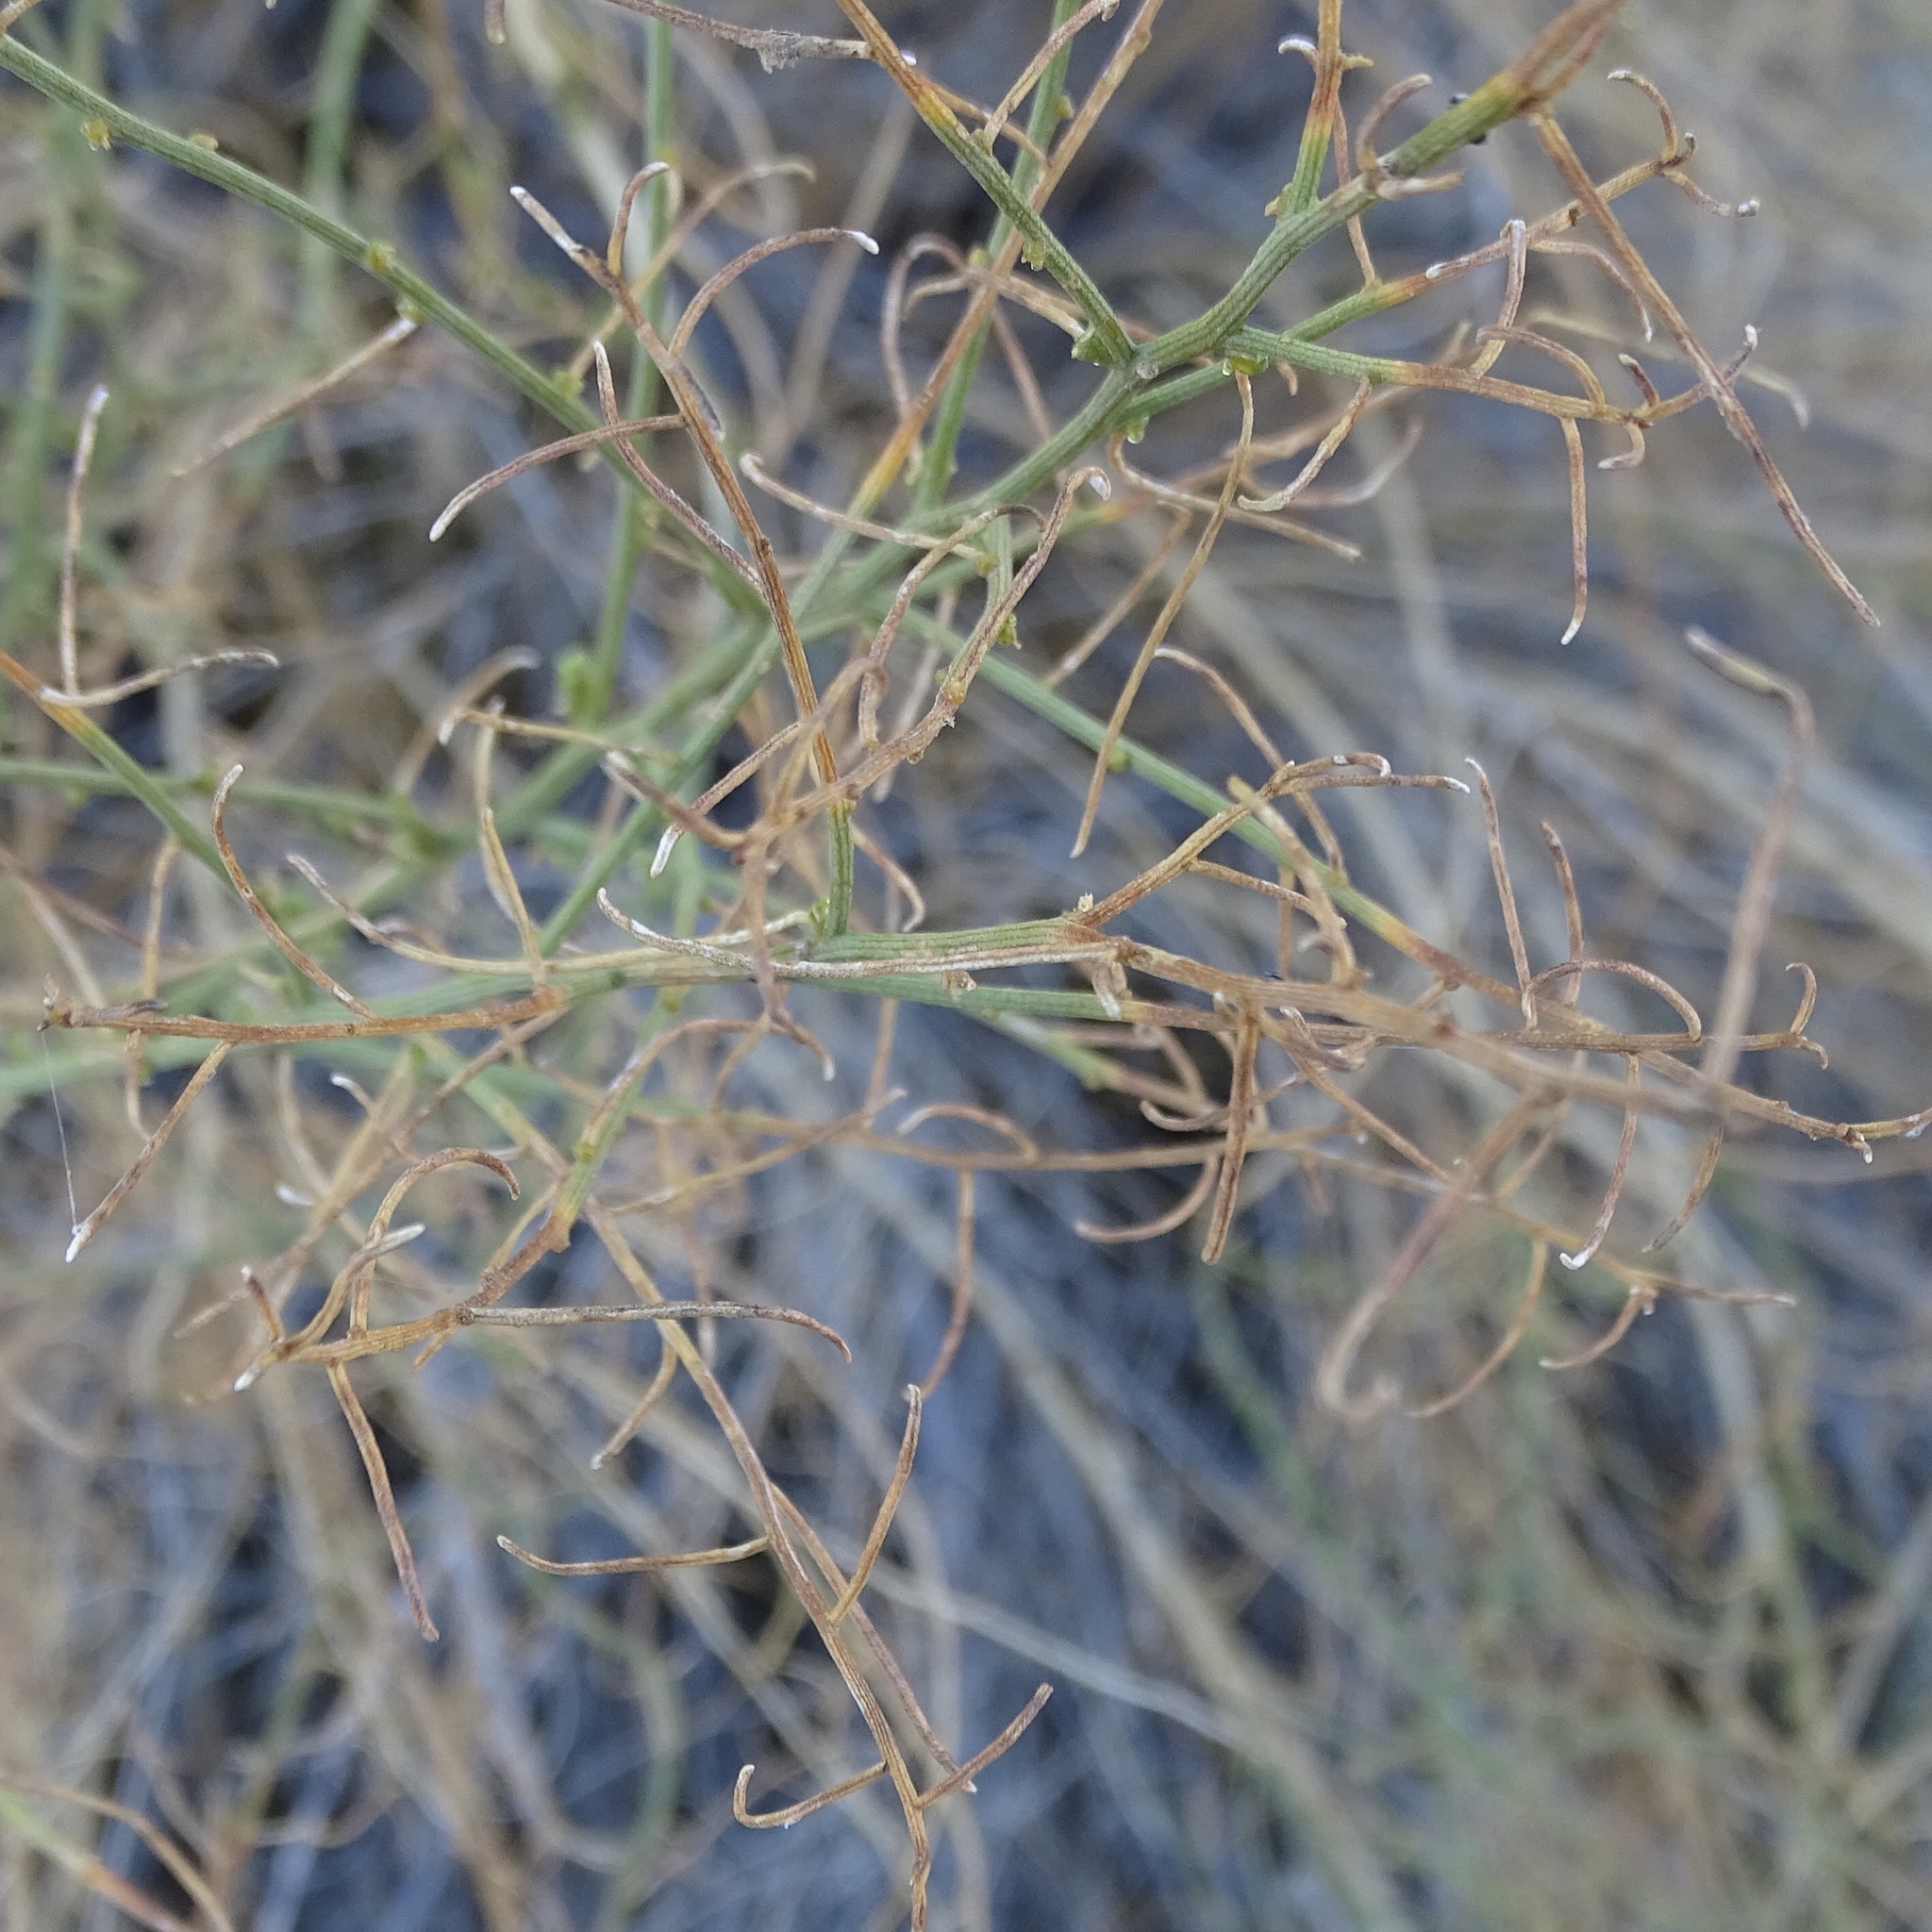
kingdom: Plantae
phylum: Tracheophyta
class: Magnoliopsida
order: Asterales
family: Asteraceae
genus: Ambrosia
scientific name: Ambrosia salsola
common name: Burrobrush
